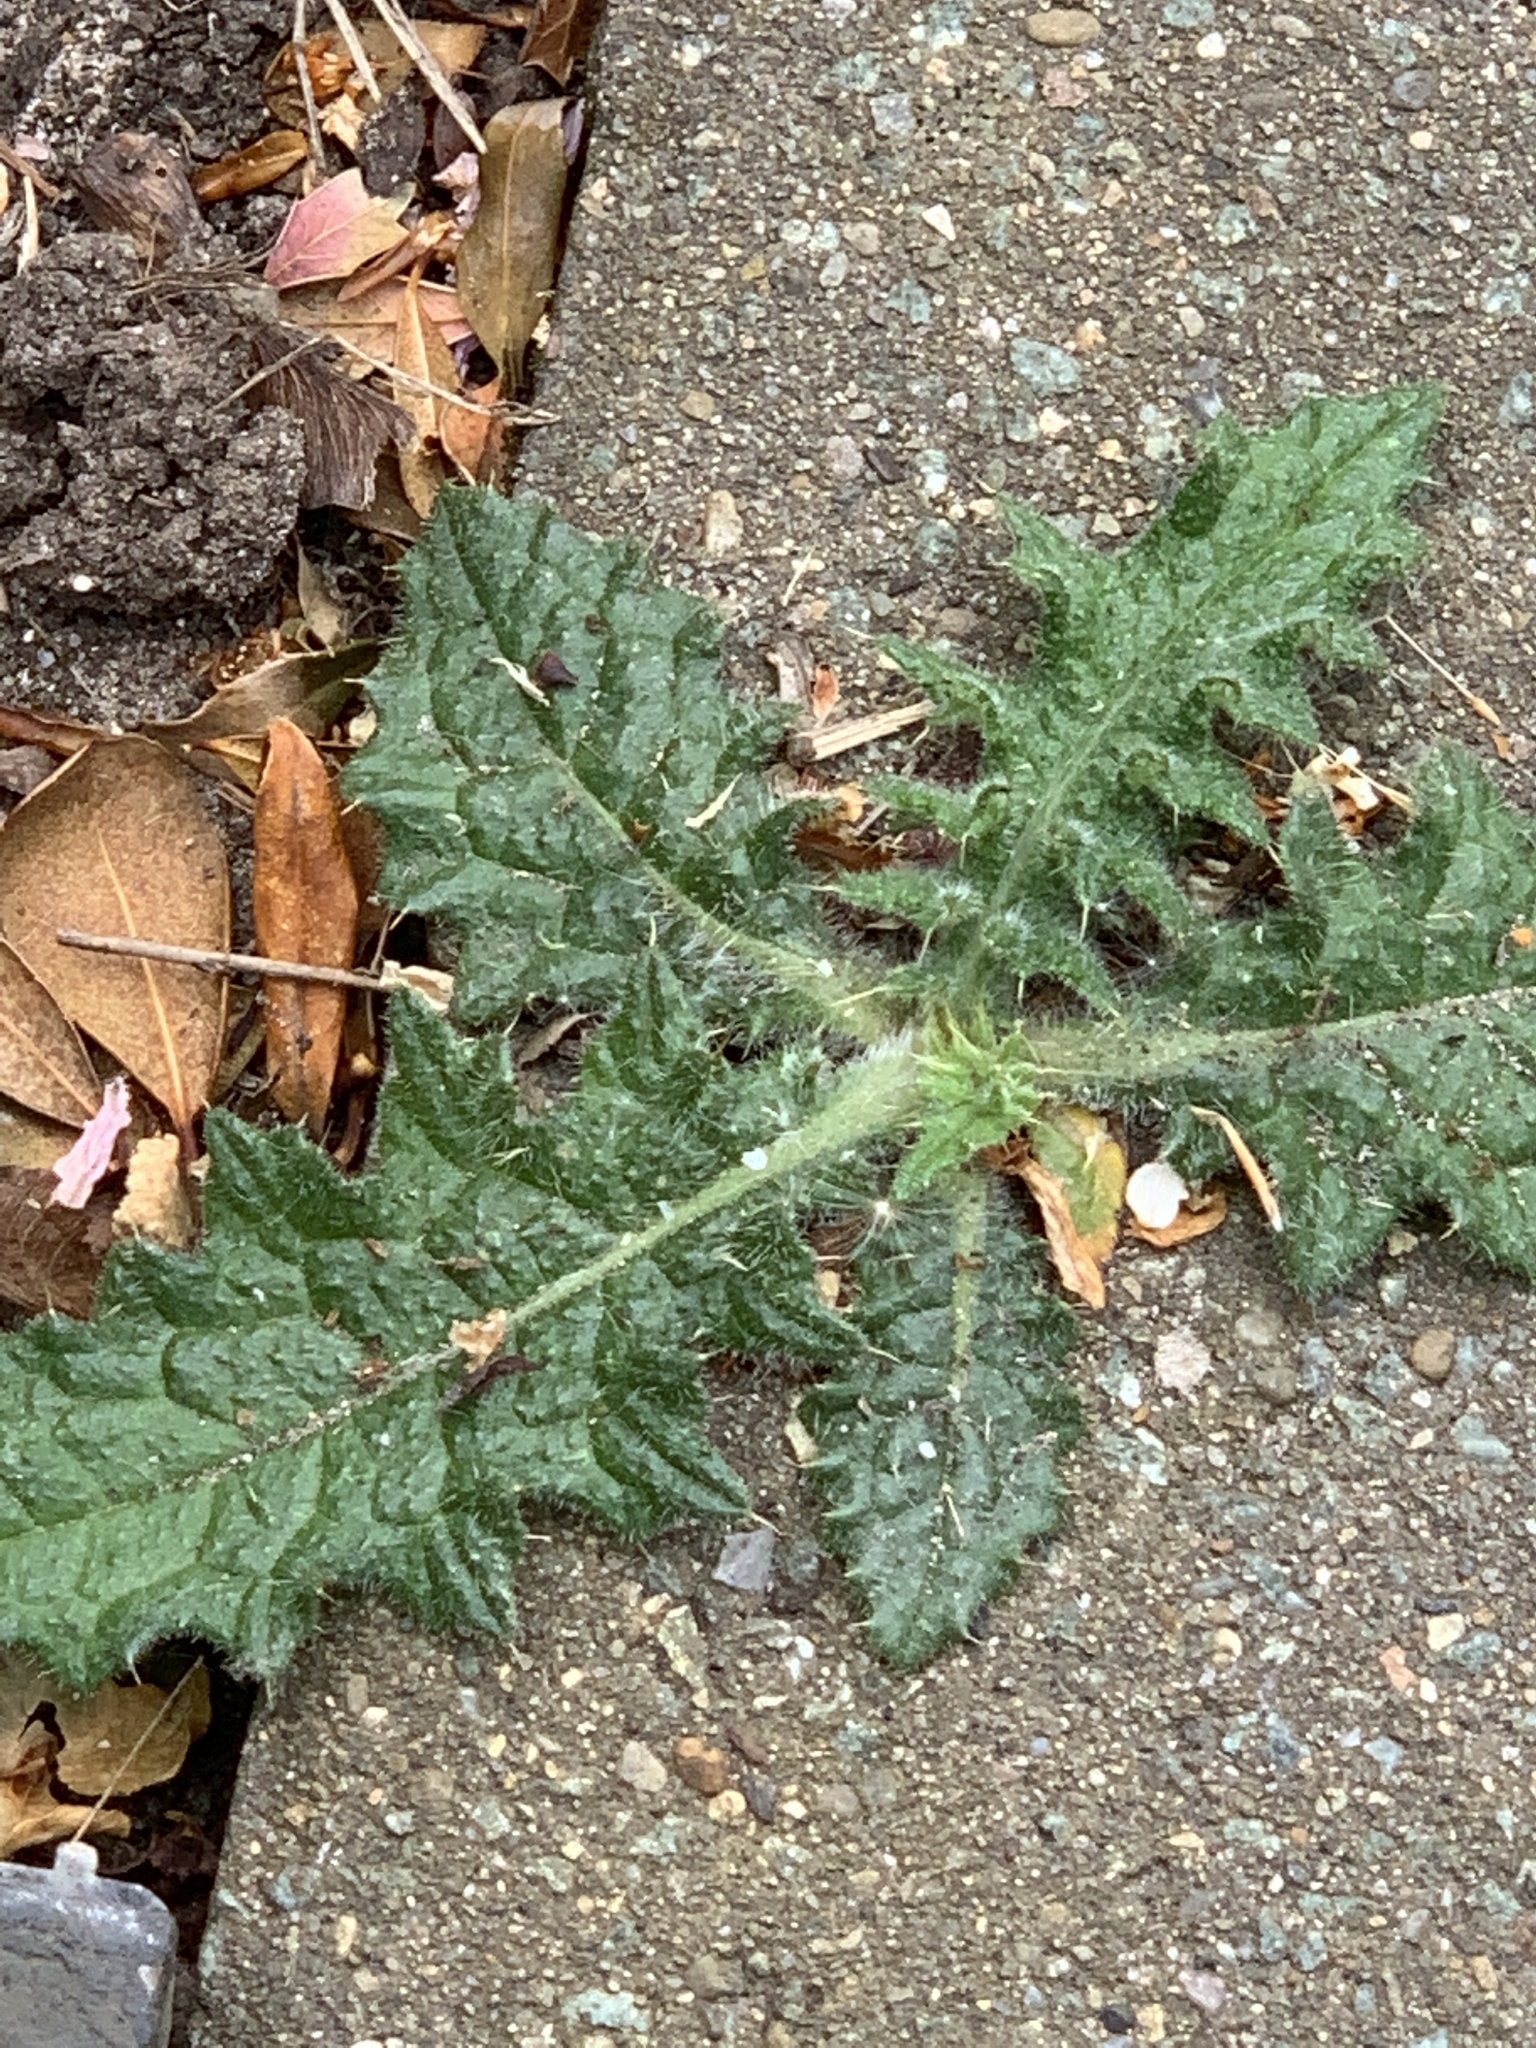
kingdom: Plantae
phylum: Tracheophyta
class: Magnoliopsida
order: Asterales
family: Asteraceae
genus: Cirsium
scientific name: Cirsium vulgare
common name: Bull thistle
